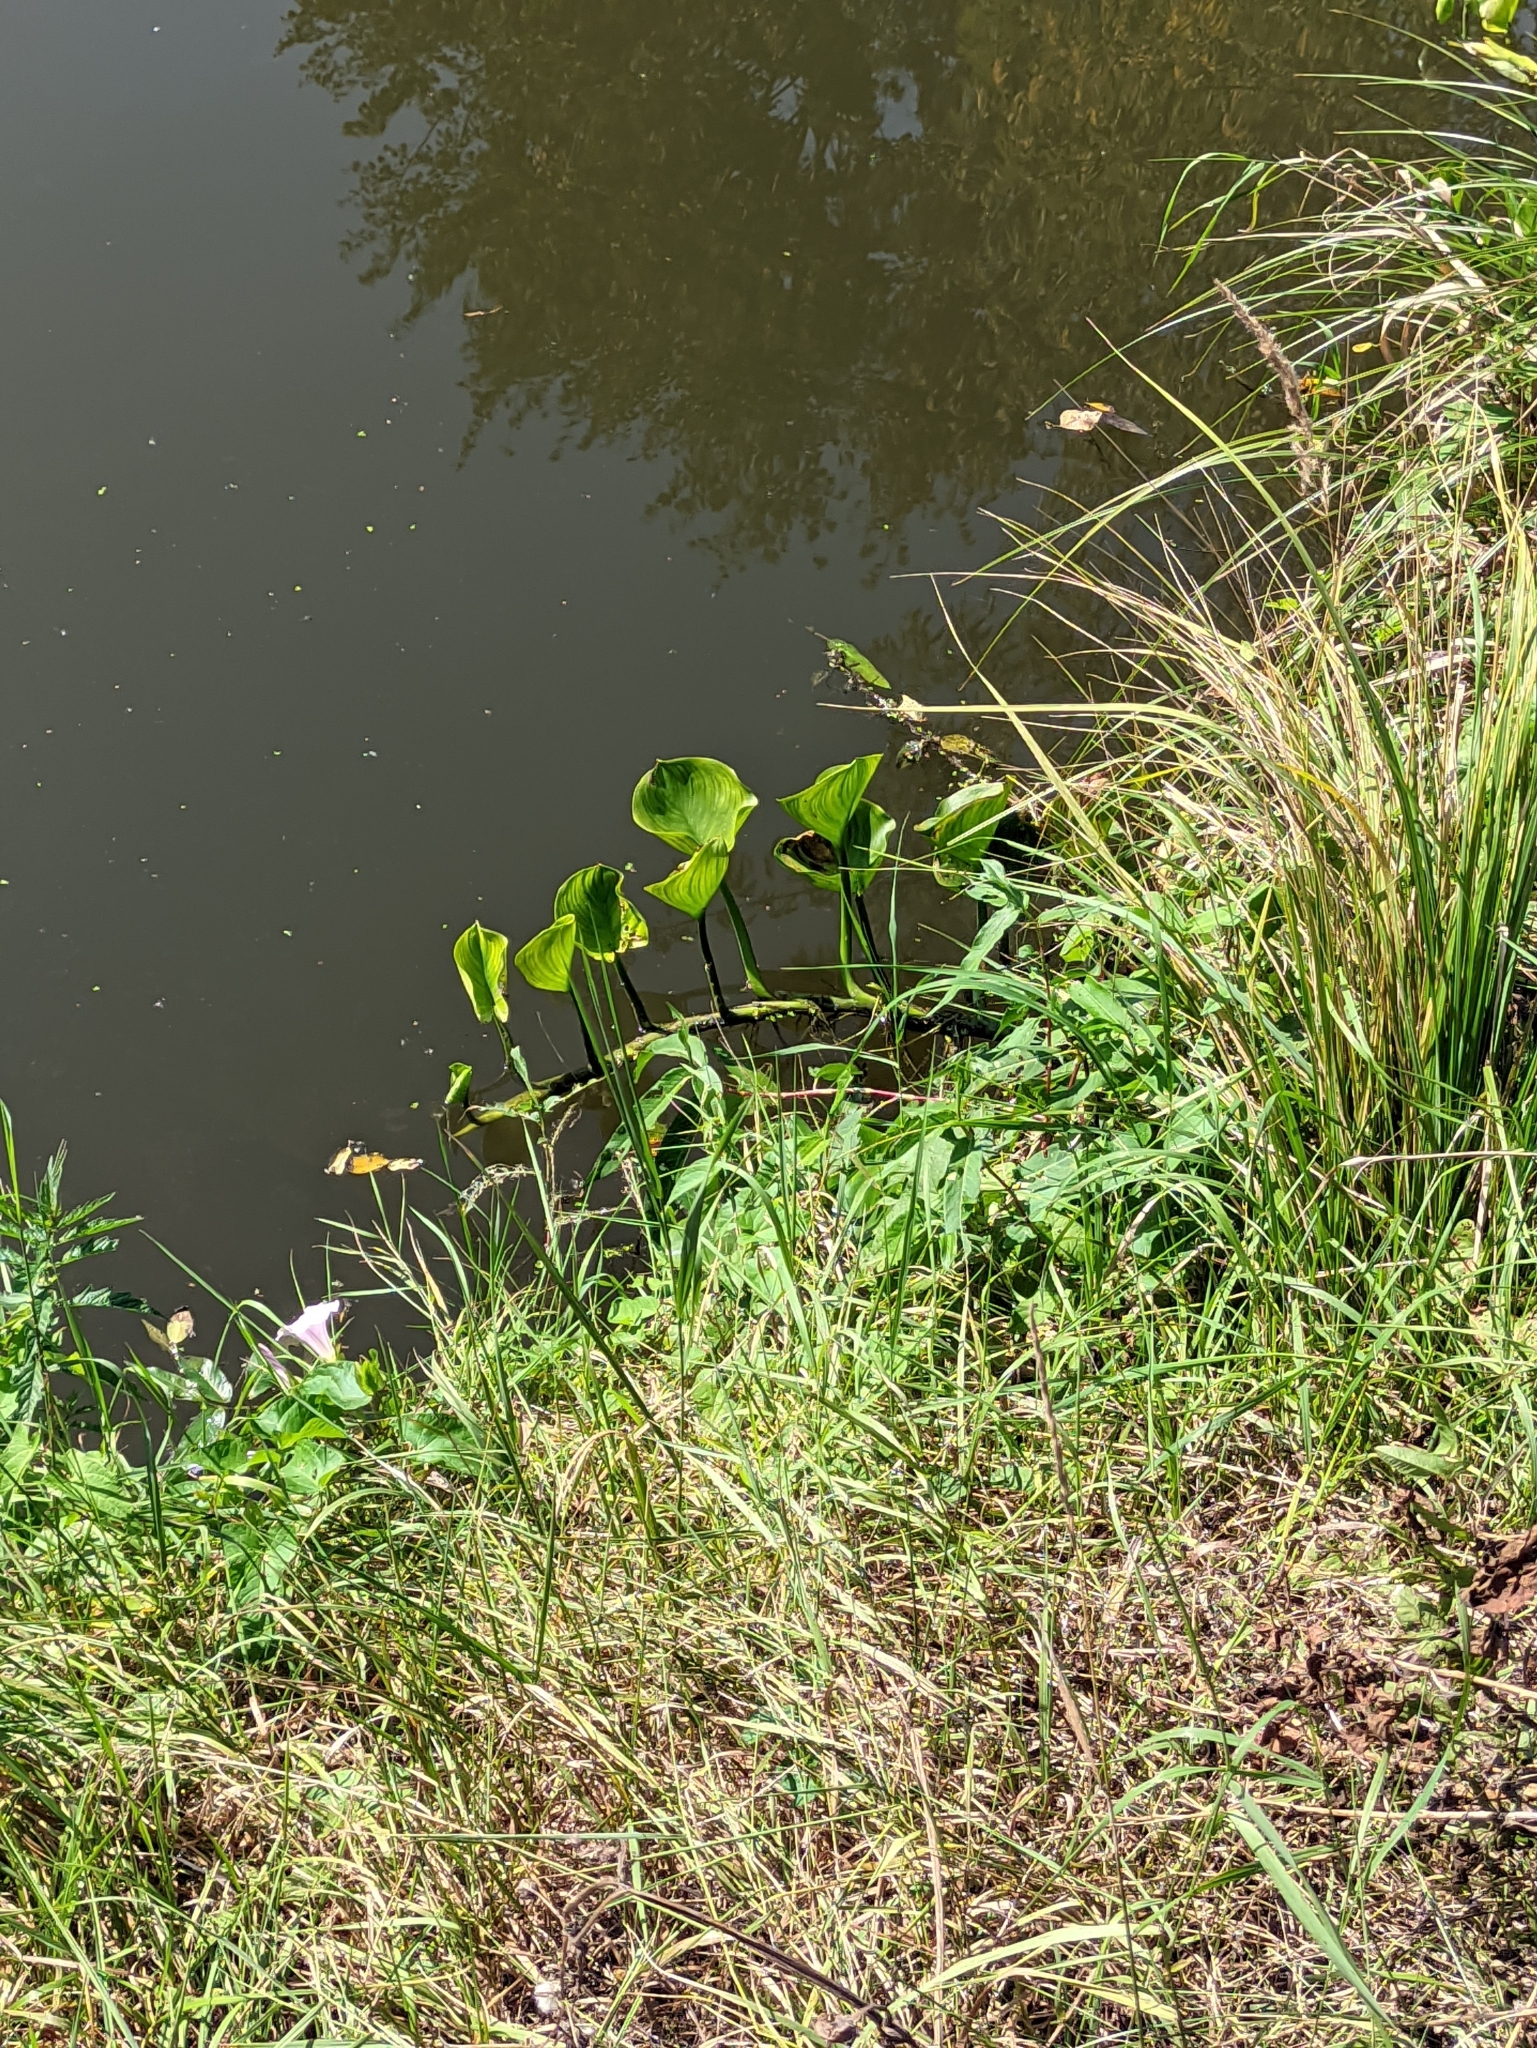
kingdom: Plantae
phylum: Tracheophyta
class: Liliopsida
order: Alismatales
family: Araceae
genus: Calla
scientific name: Calla palustris
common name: Bog arum
